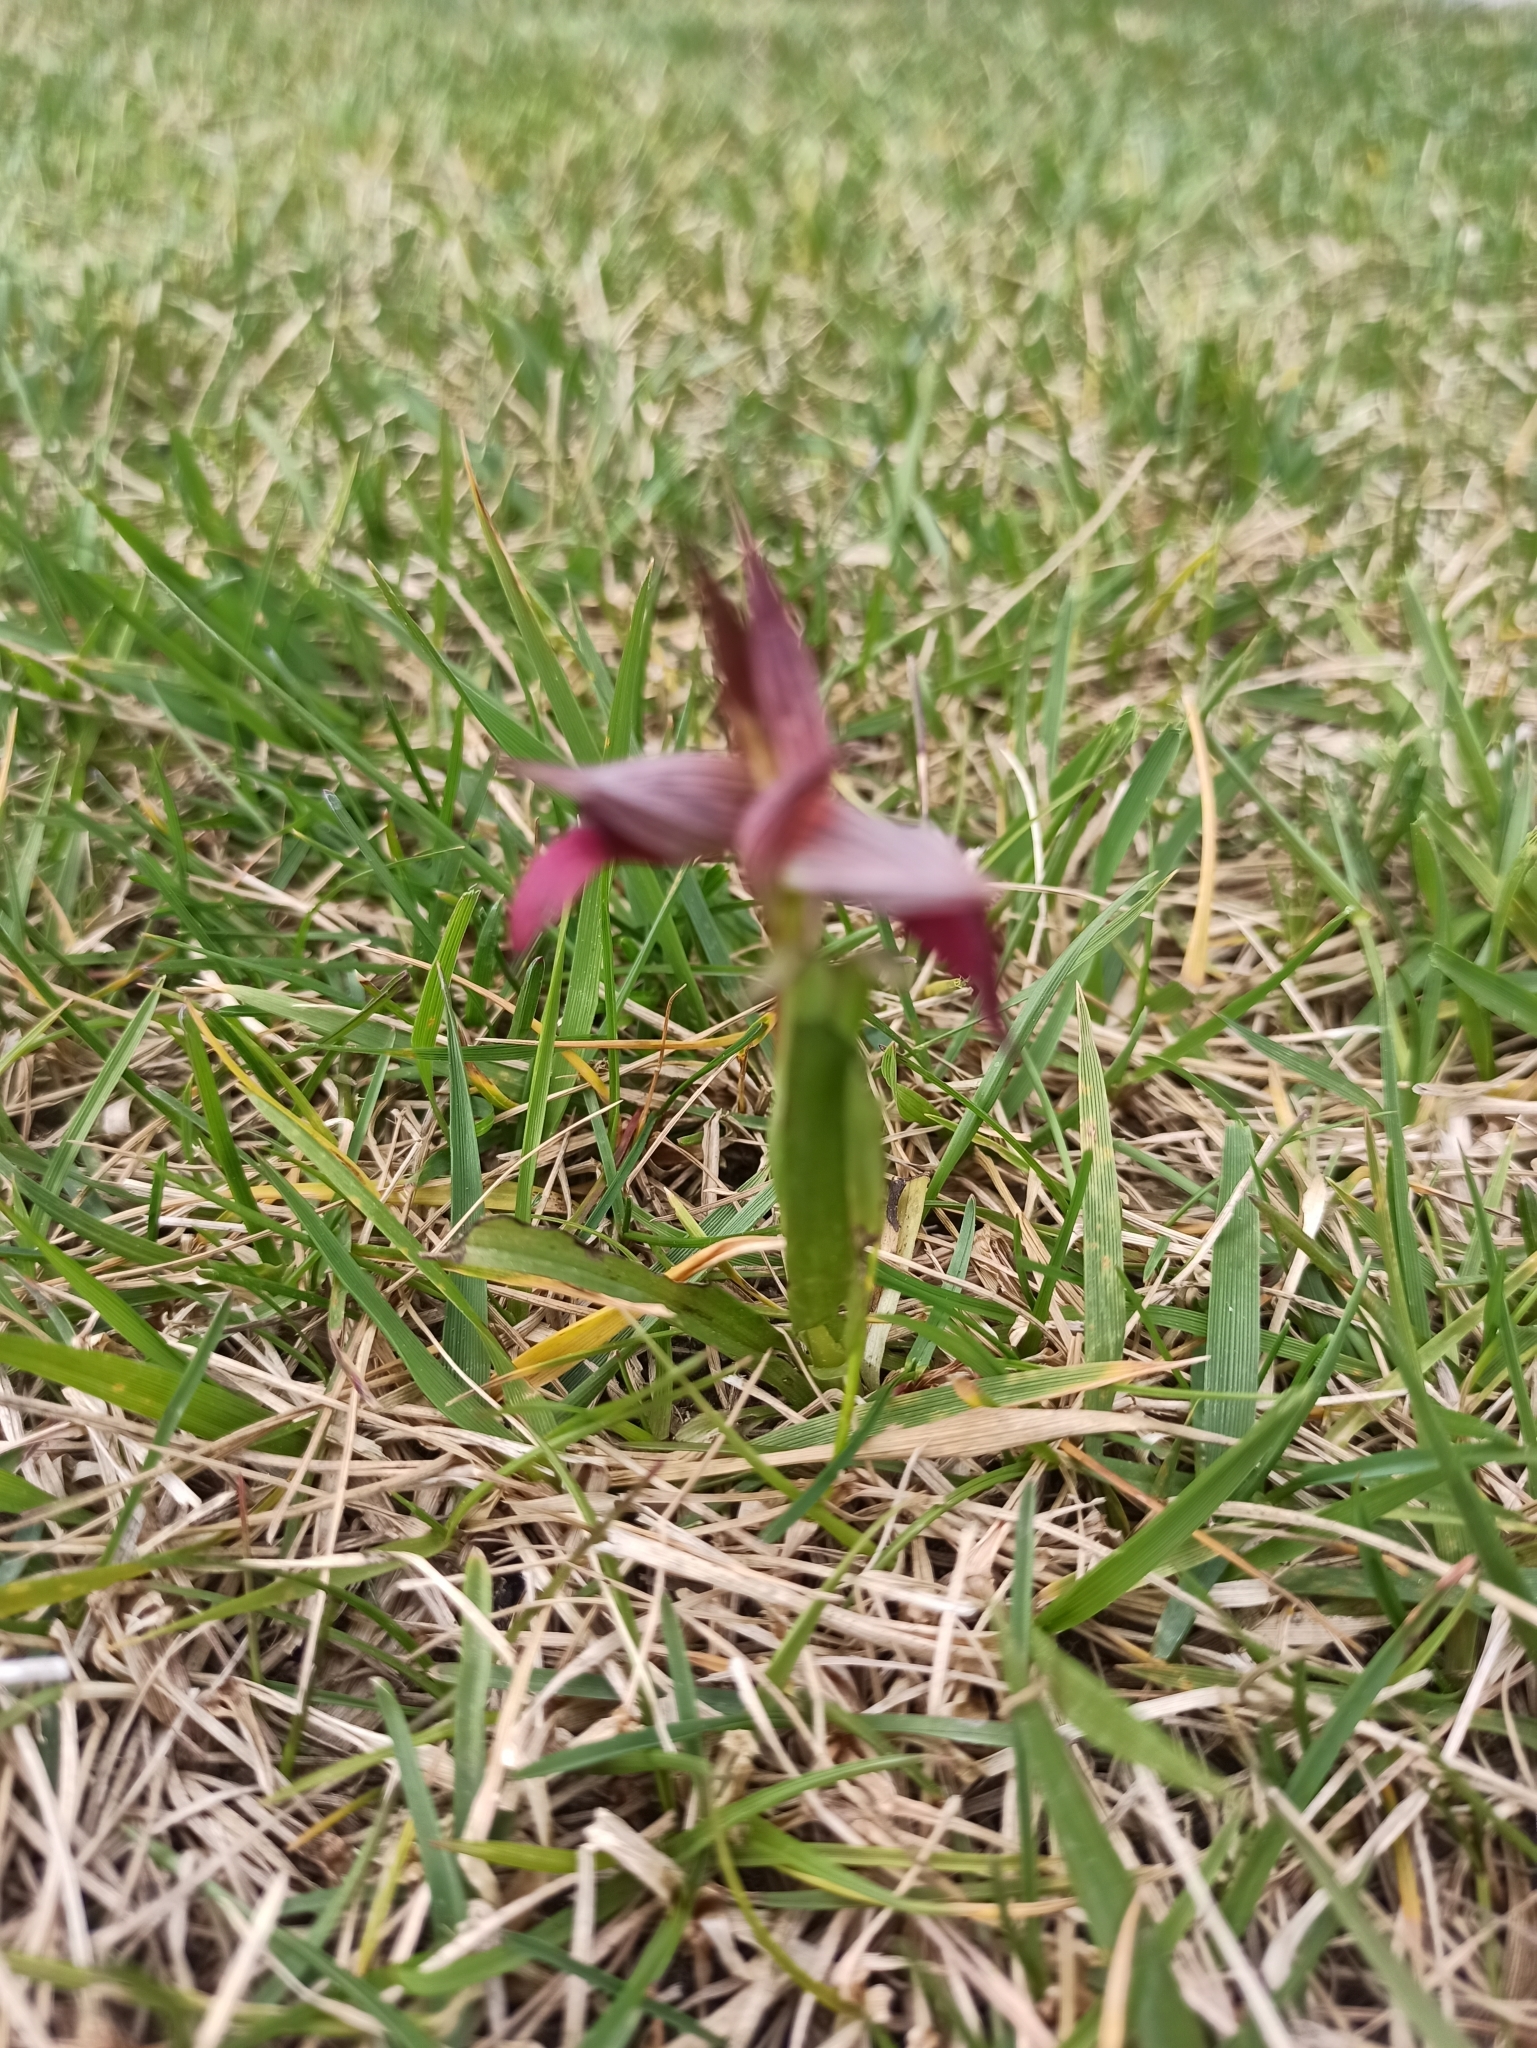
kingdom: Plantae
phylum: Tracheophyta
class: Liliopsida
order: Asparagales
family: Orchidaceae
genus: Serapias
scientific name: Serapias lingua
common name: Tongue-orchid
